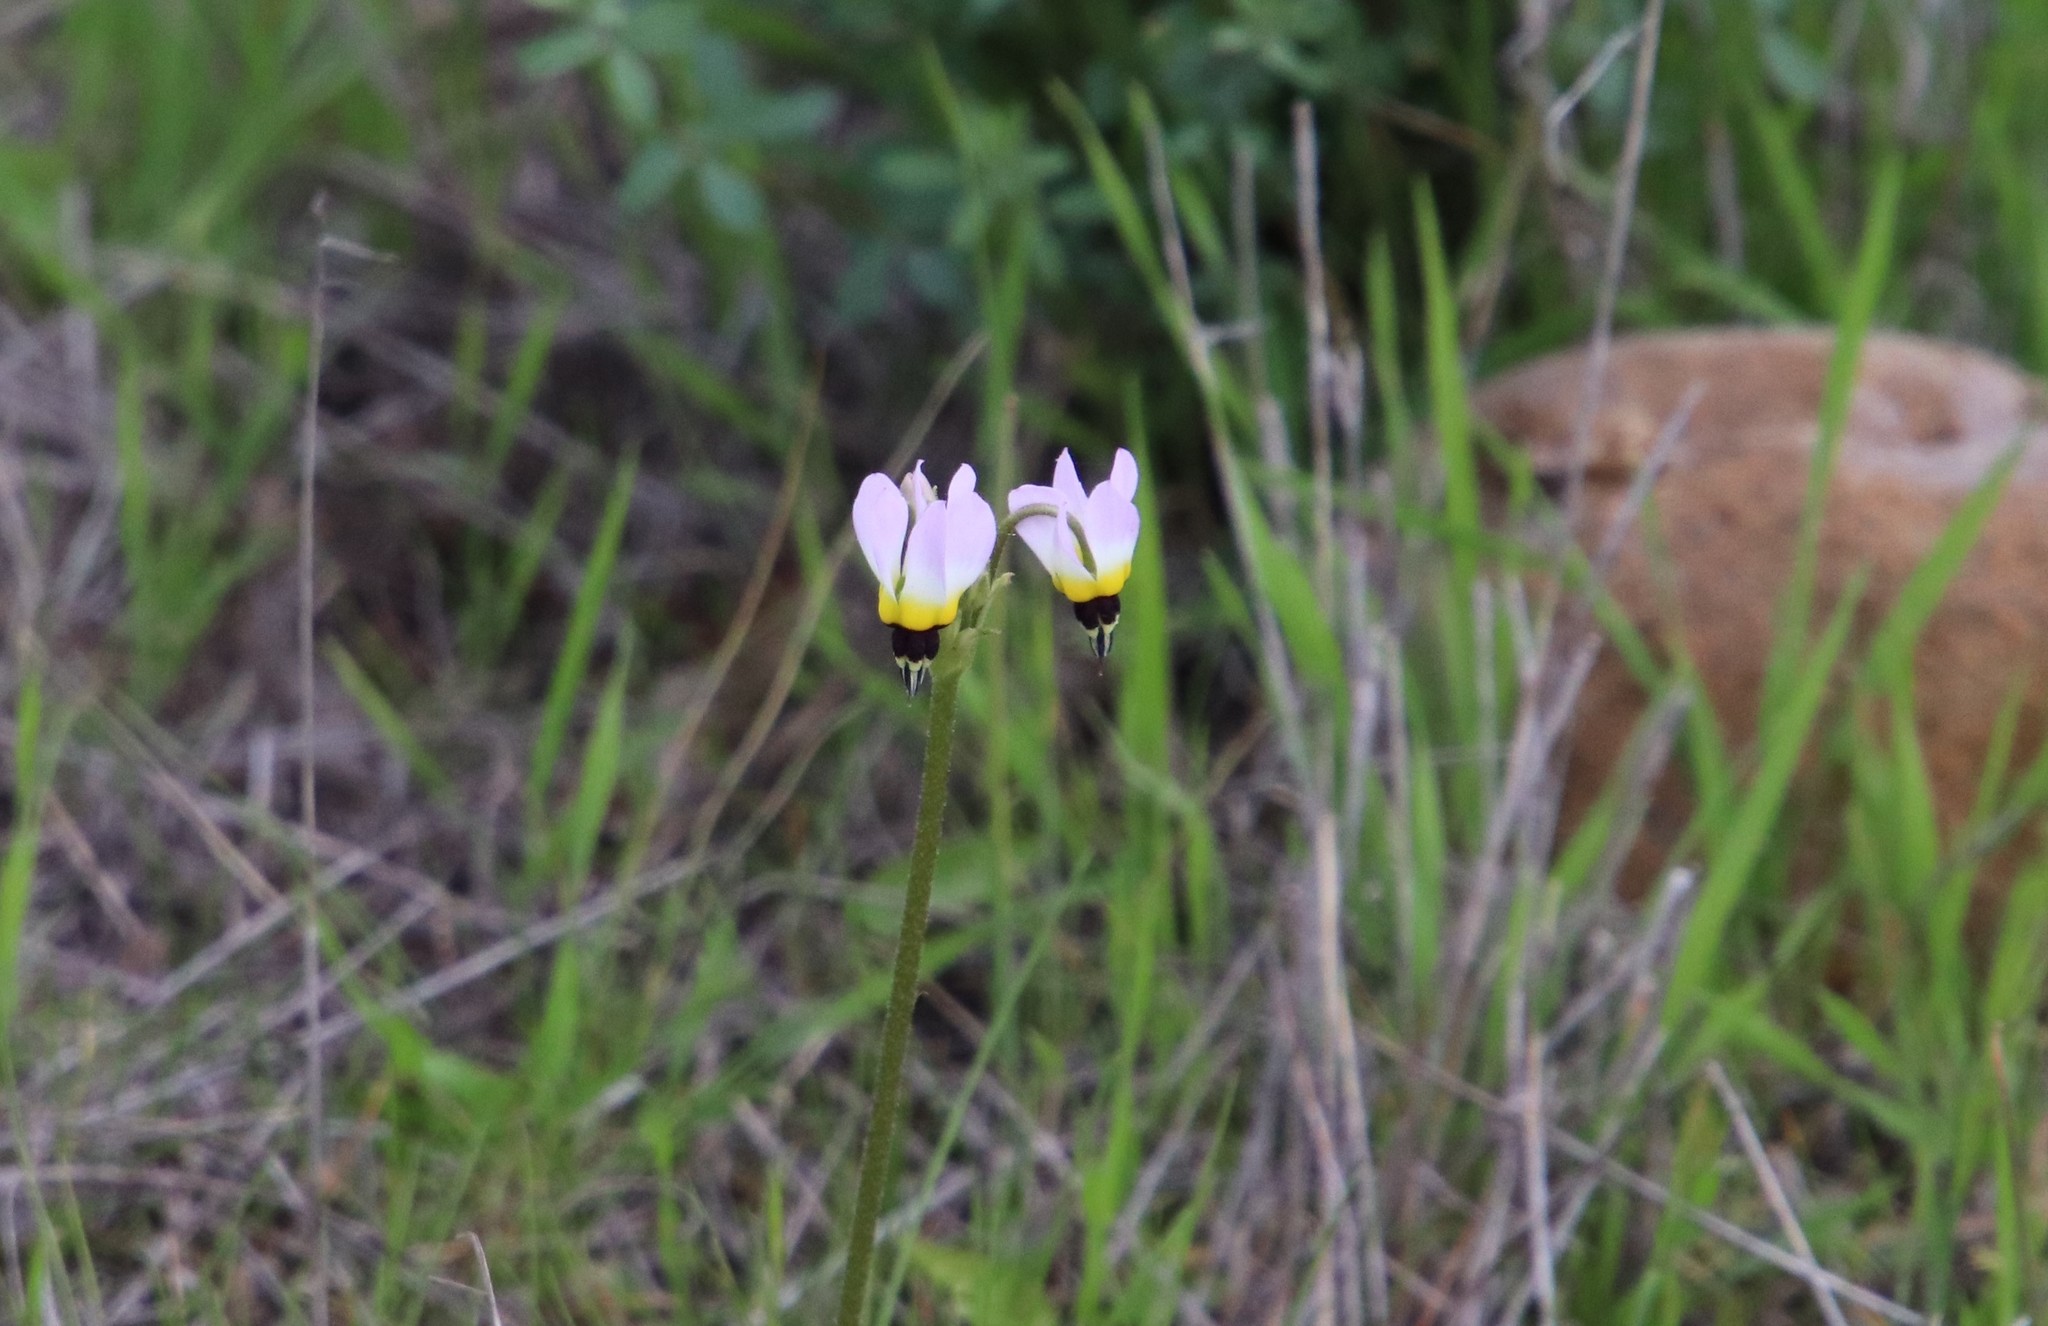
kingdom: Plantae
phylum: Tracheophyta
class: Magnoliopsida
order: Ericales
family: Primulaceae
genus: Dodecatheon
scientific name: Dodecatheon clevelandii
